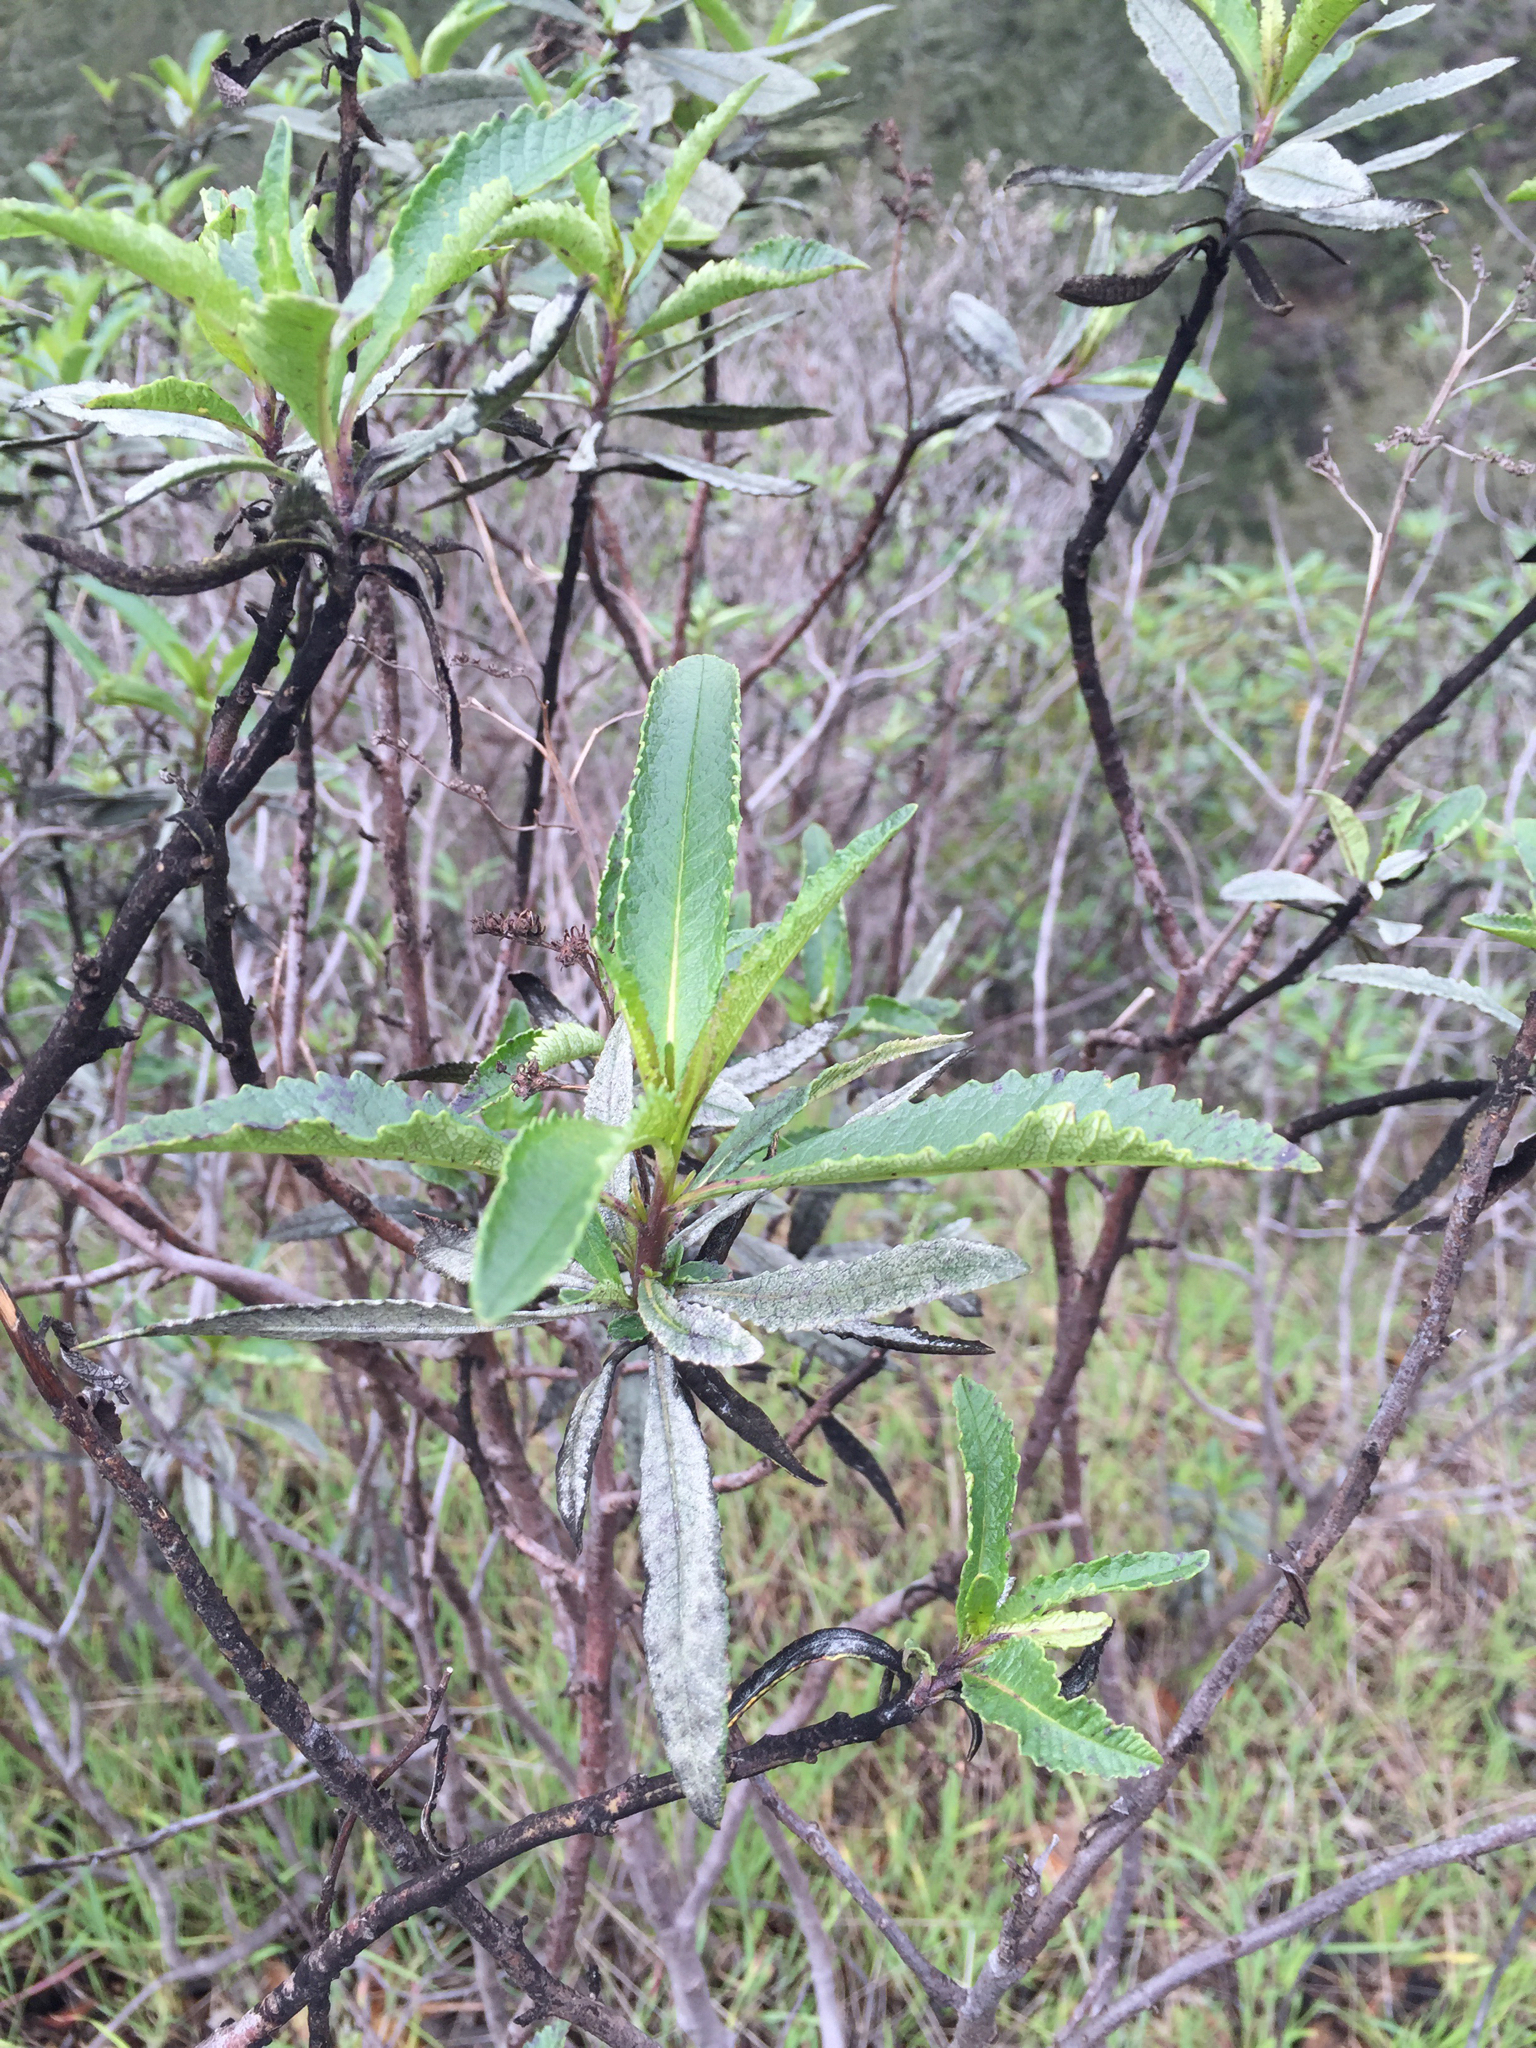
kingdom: Plantae
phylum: Tracheophyta
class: Magnoliopsida
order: Boraginales
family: Namaceae
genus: Eriodictyon
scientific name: Eriodictyon californicum
